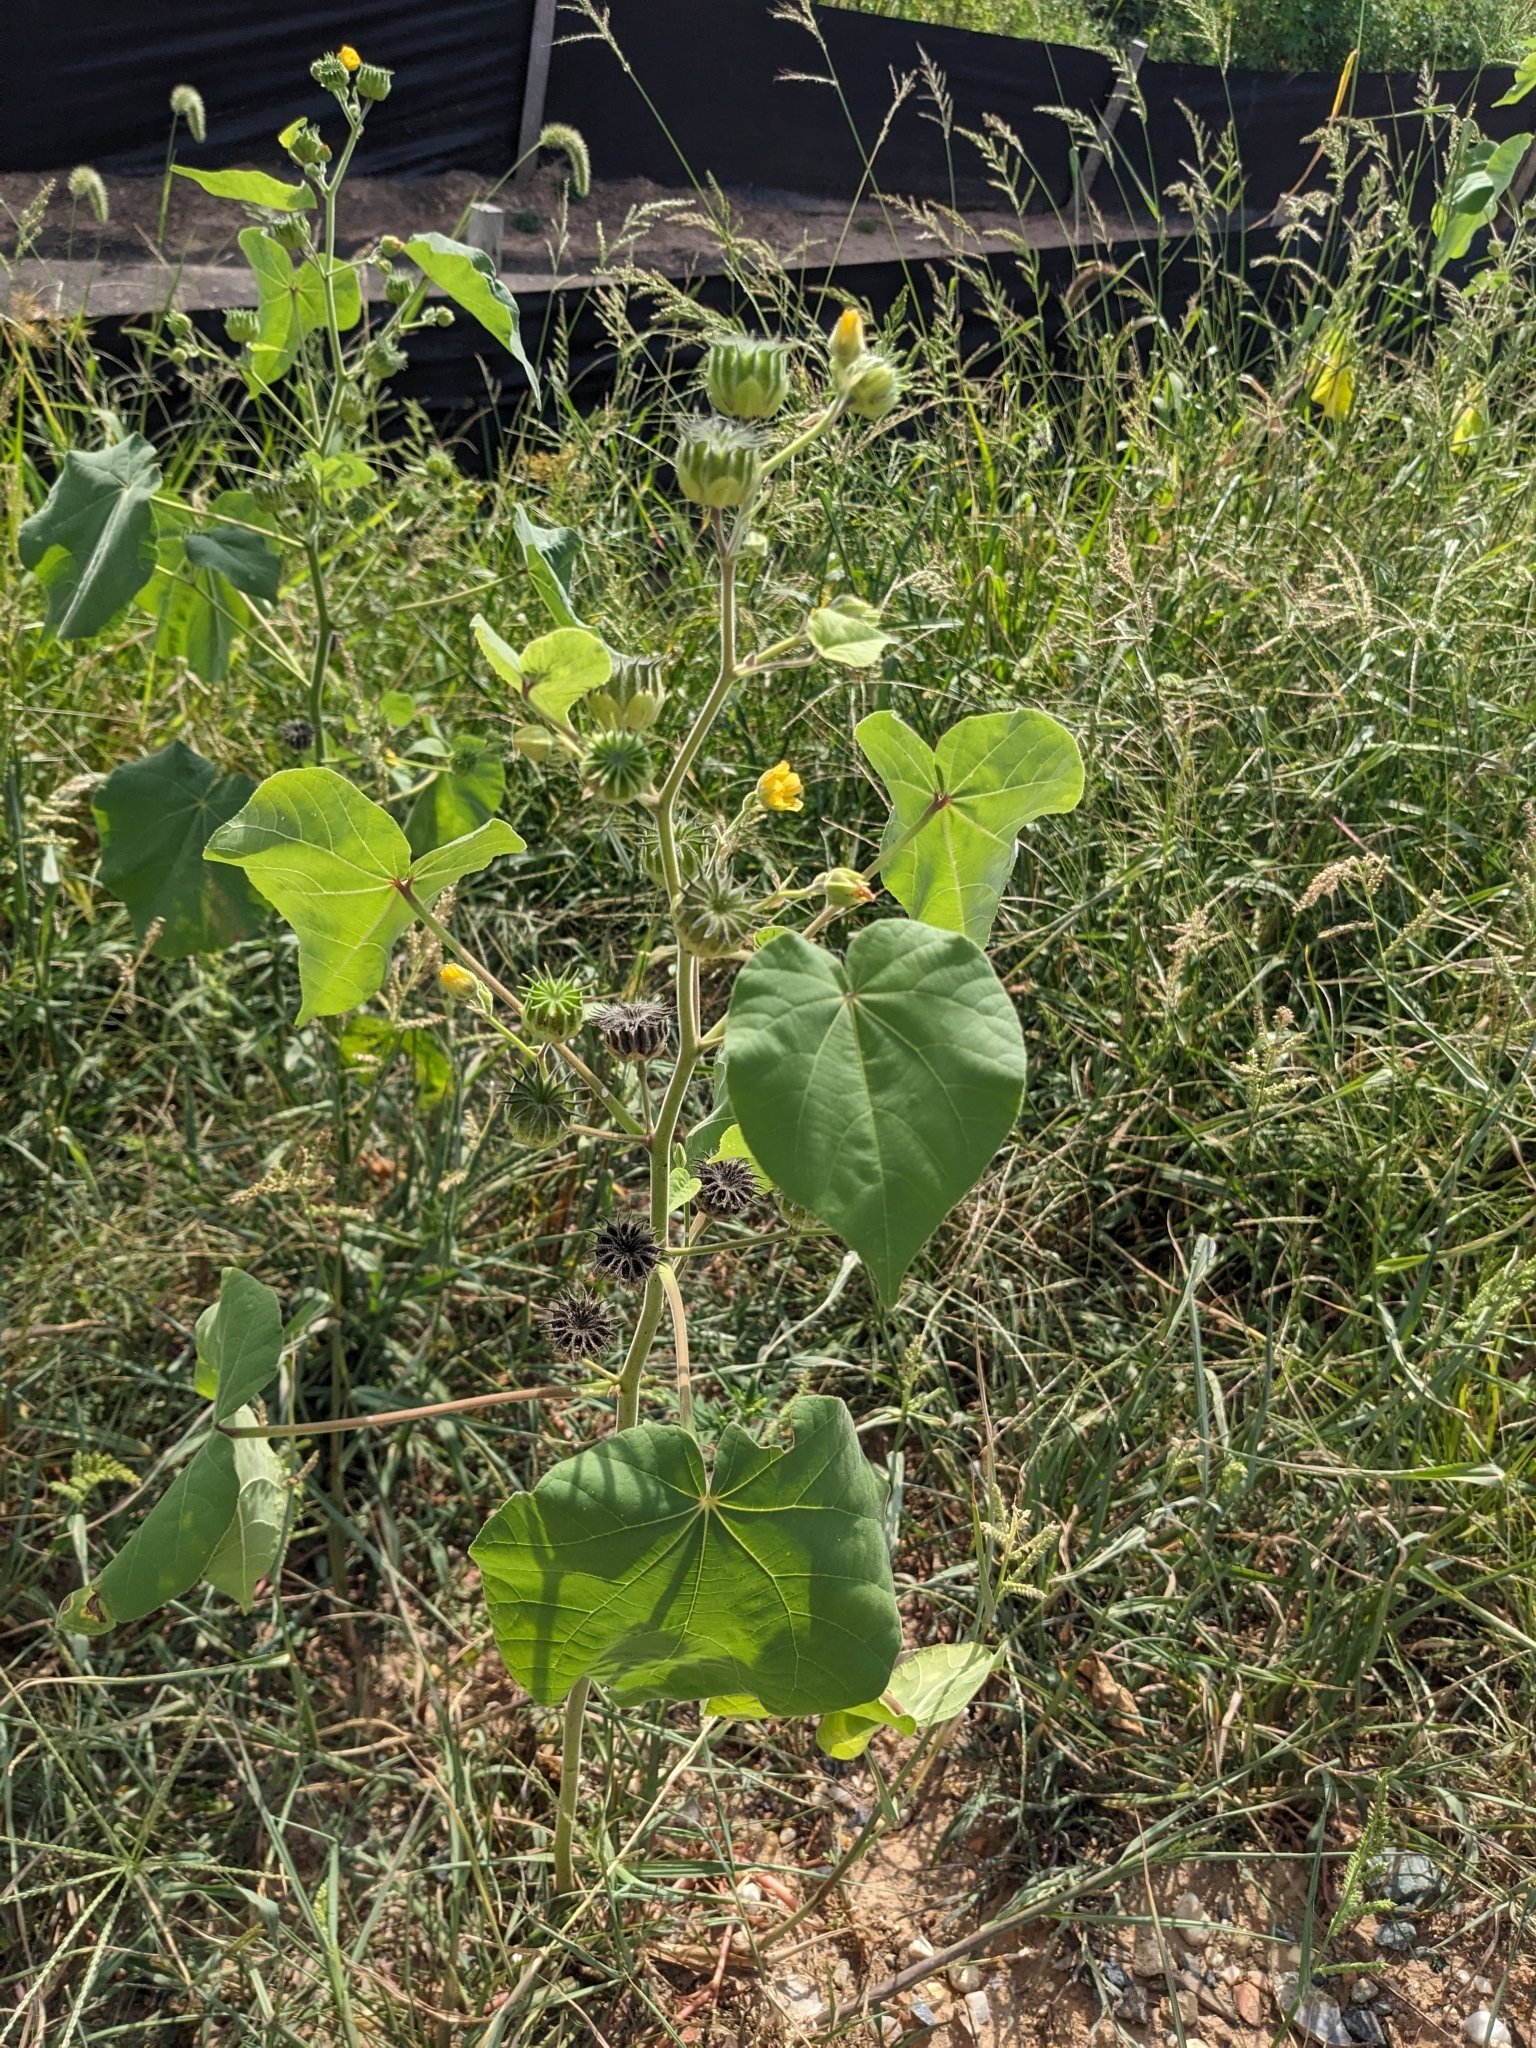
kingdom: Plantae
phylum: Tracheophyta
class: Magnoliopsida
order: Malvales
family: Malvaceae
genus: Abutilon
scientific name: Abutilon theophrasti
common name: Velvetleaf
